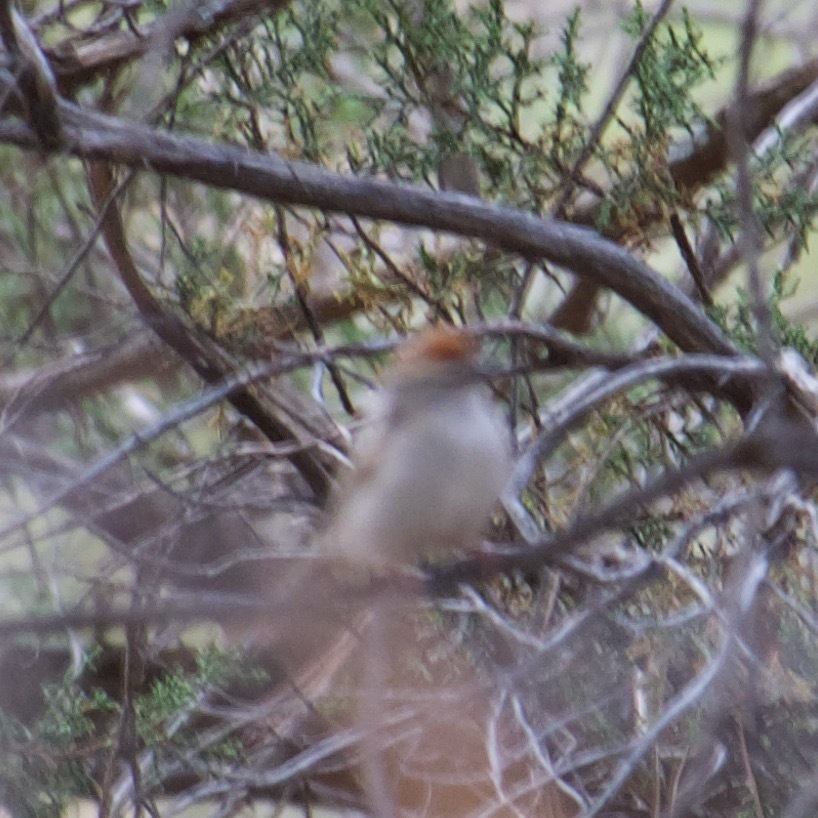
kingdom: Animalia
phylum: Chordata
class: Aves
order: Passeriformes
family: Passerellidae
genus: Spizella
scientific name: Spizella passerina
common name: Chipping sparrow
